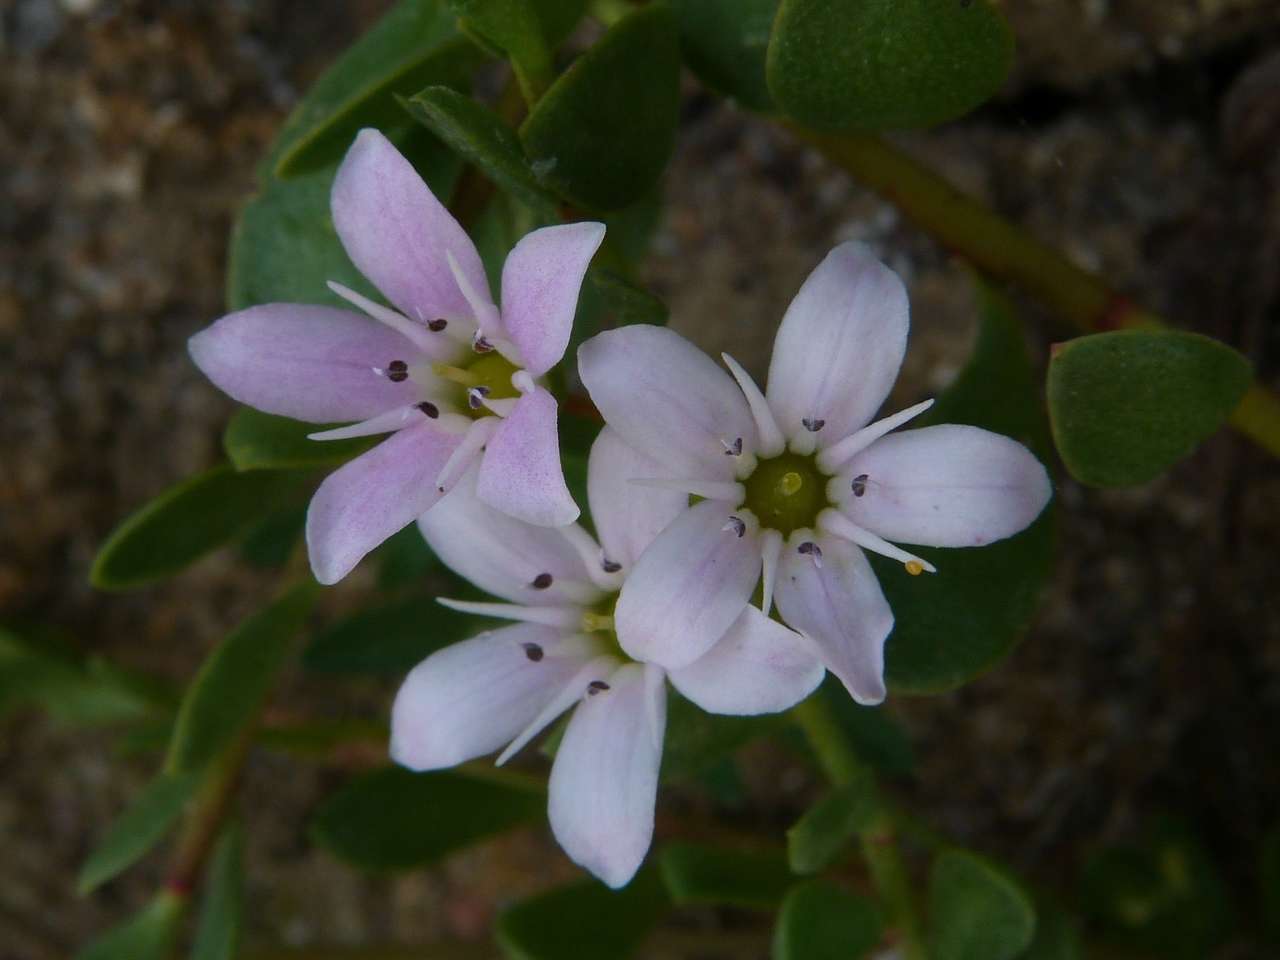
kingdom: Plantae
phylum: Tracheophyta
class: Magnoliopsida
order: Ericales
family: Primulaceae
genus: Samolus
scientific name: Samolus repens
